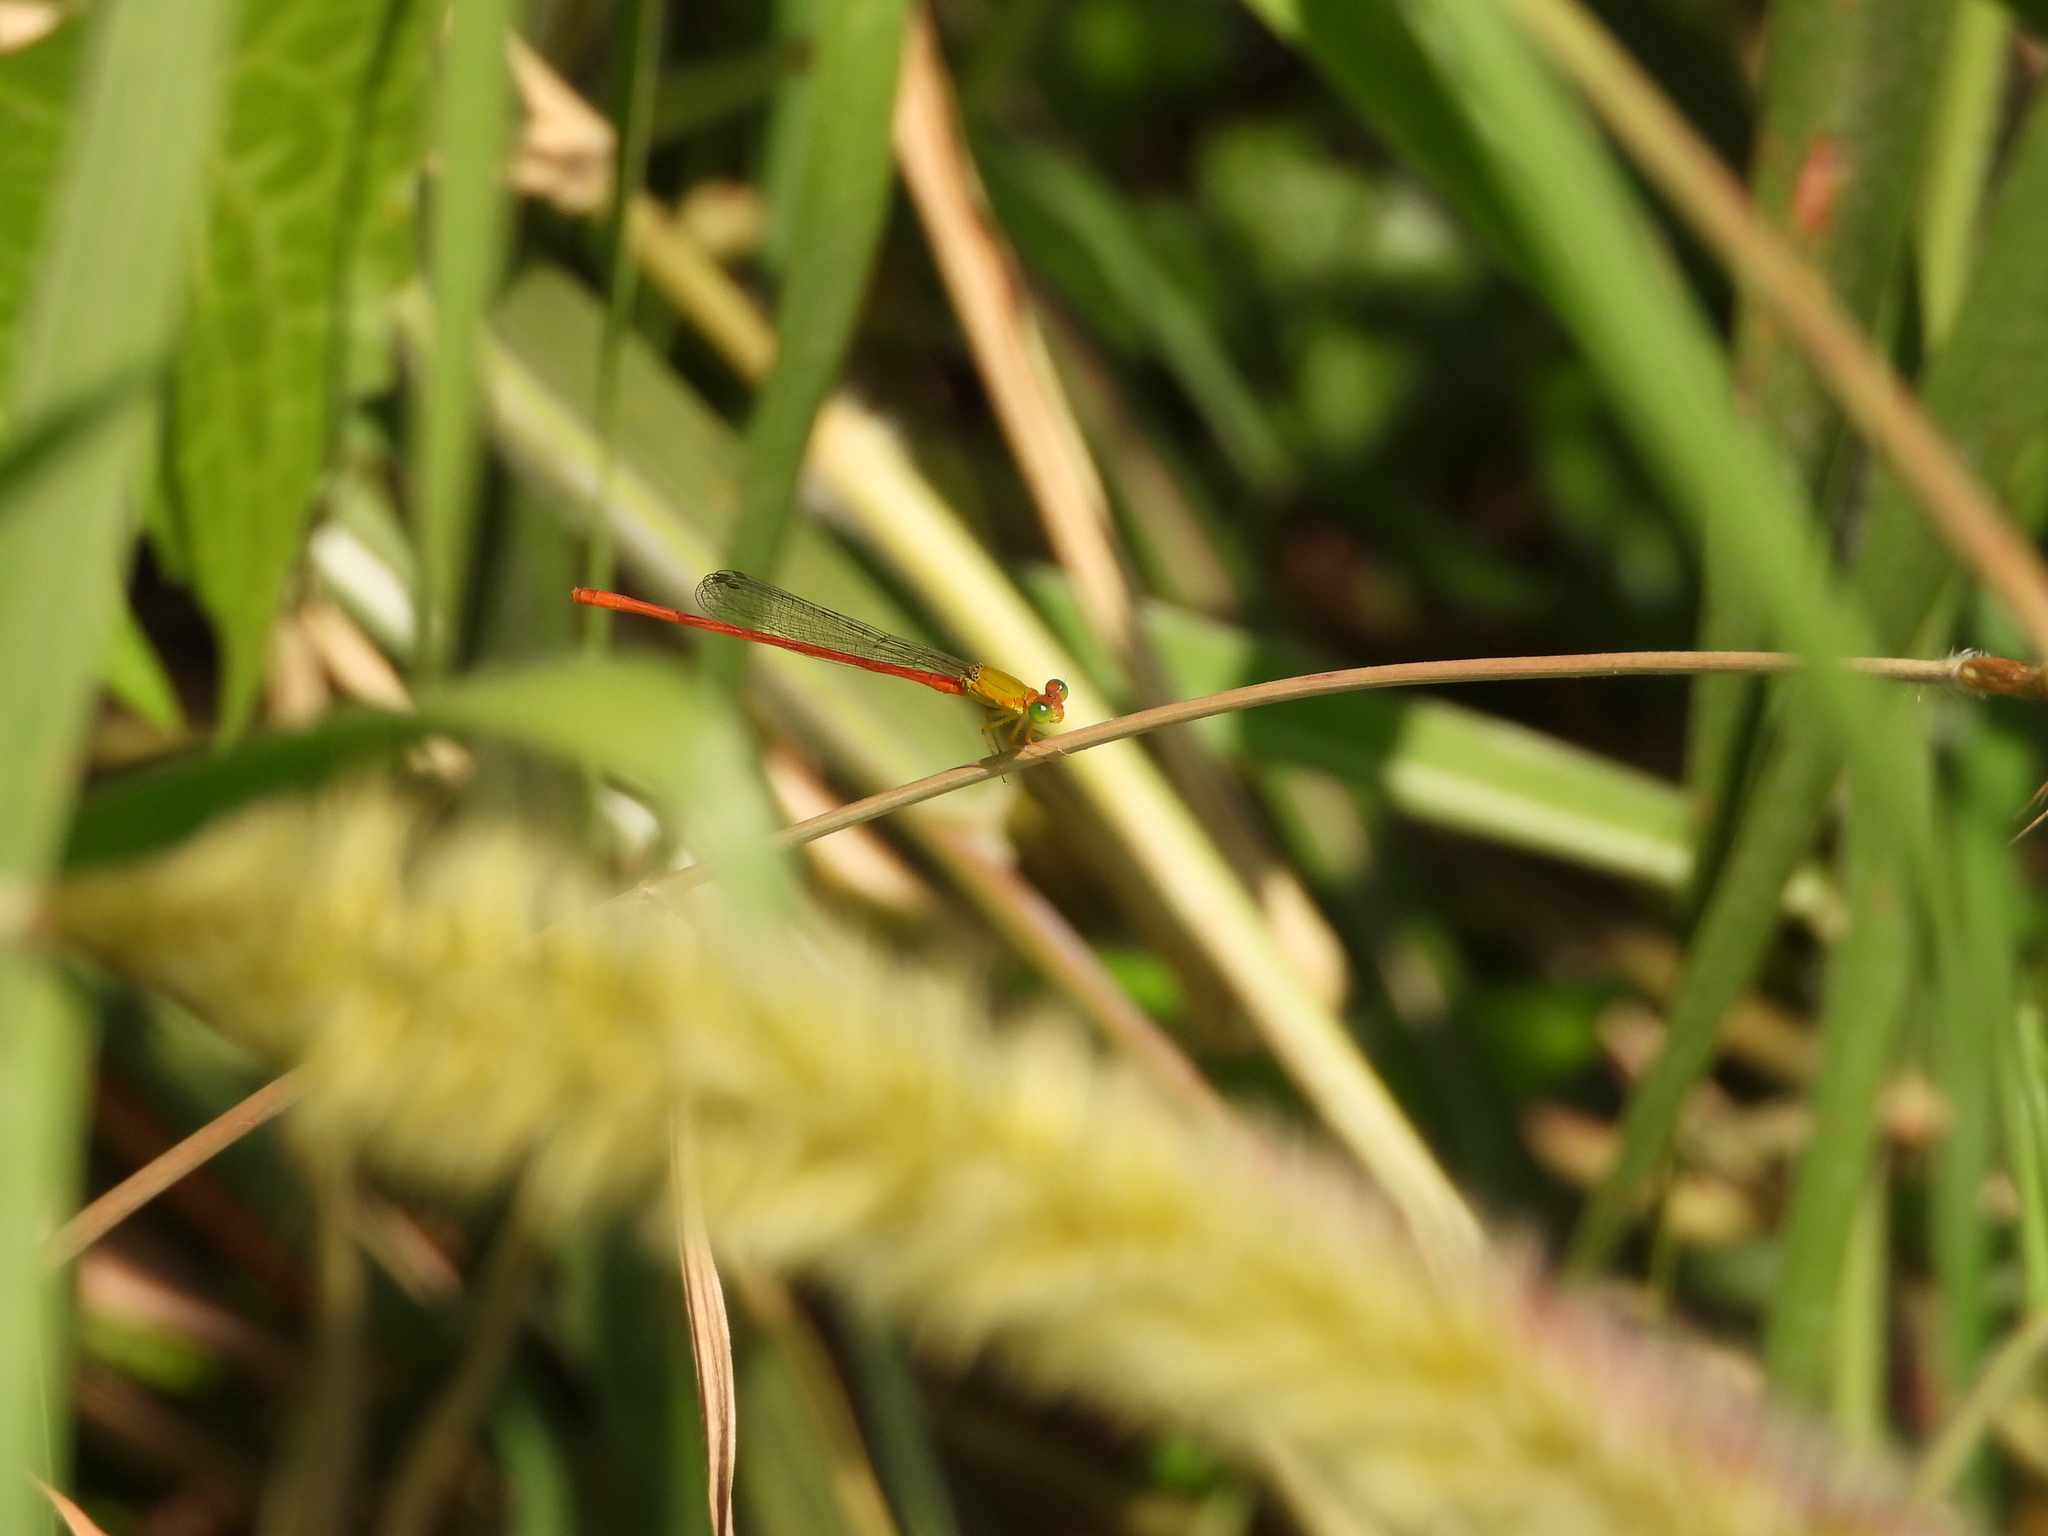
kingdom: Animalia
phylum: Arthropoda
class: Insecta
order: Odonata
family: Coenagrionidae
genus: Ceriagrion
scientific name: Ceriagrion auranticum
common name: Orange-tailed sprite
